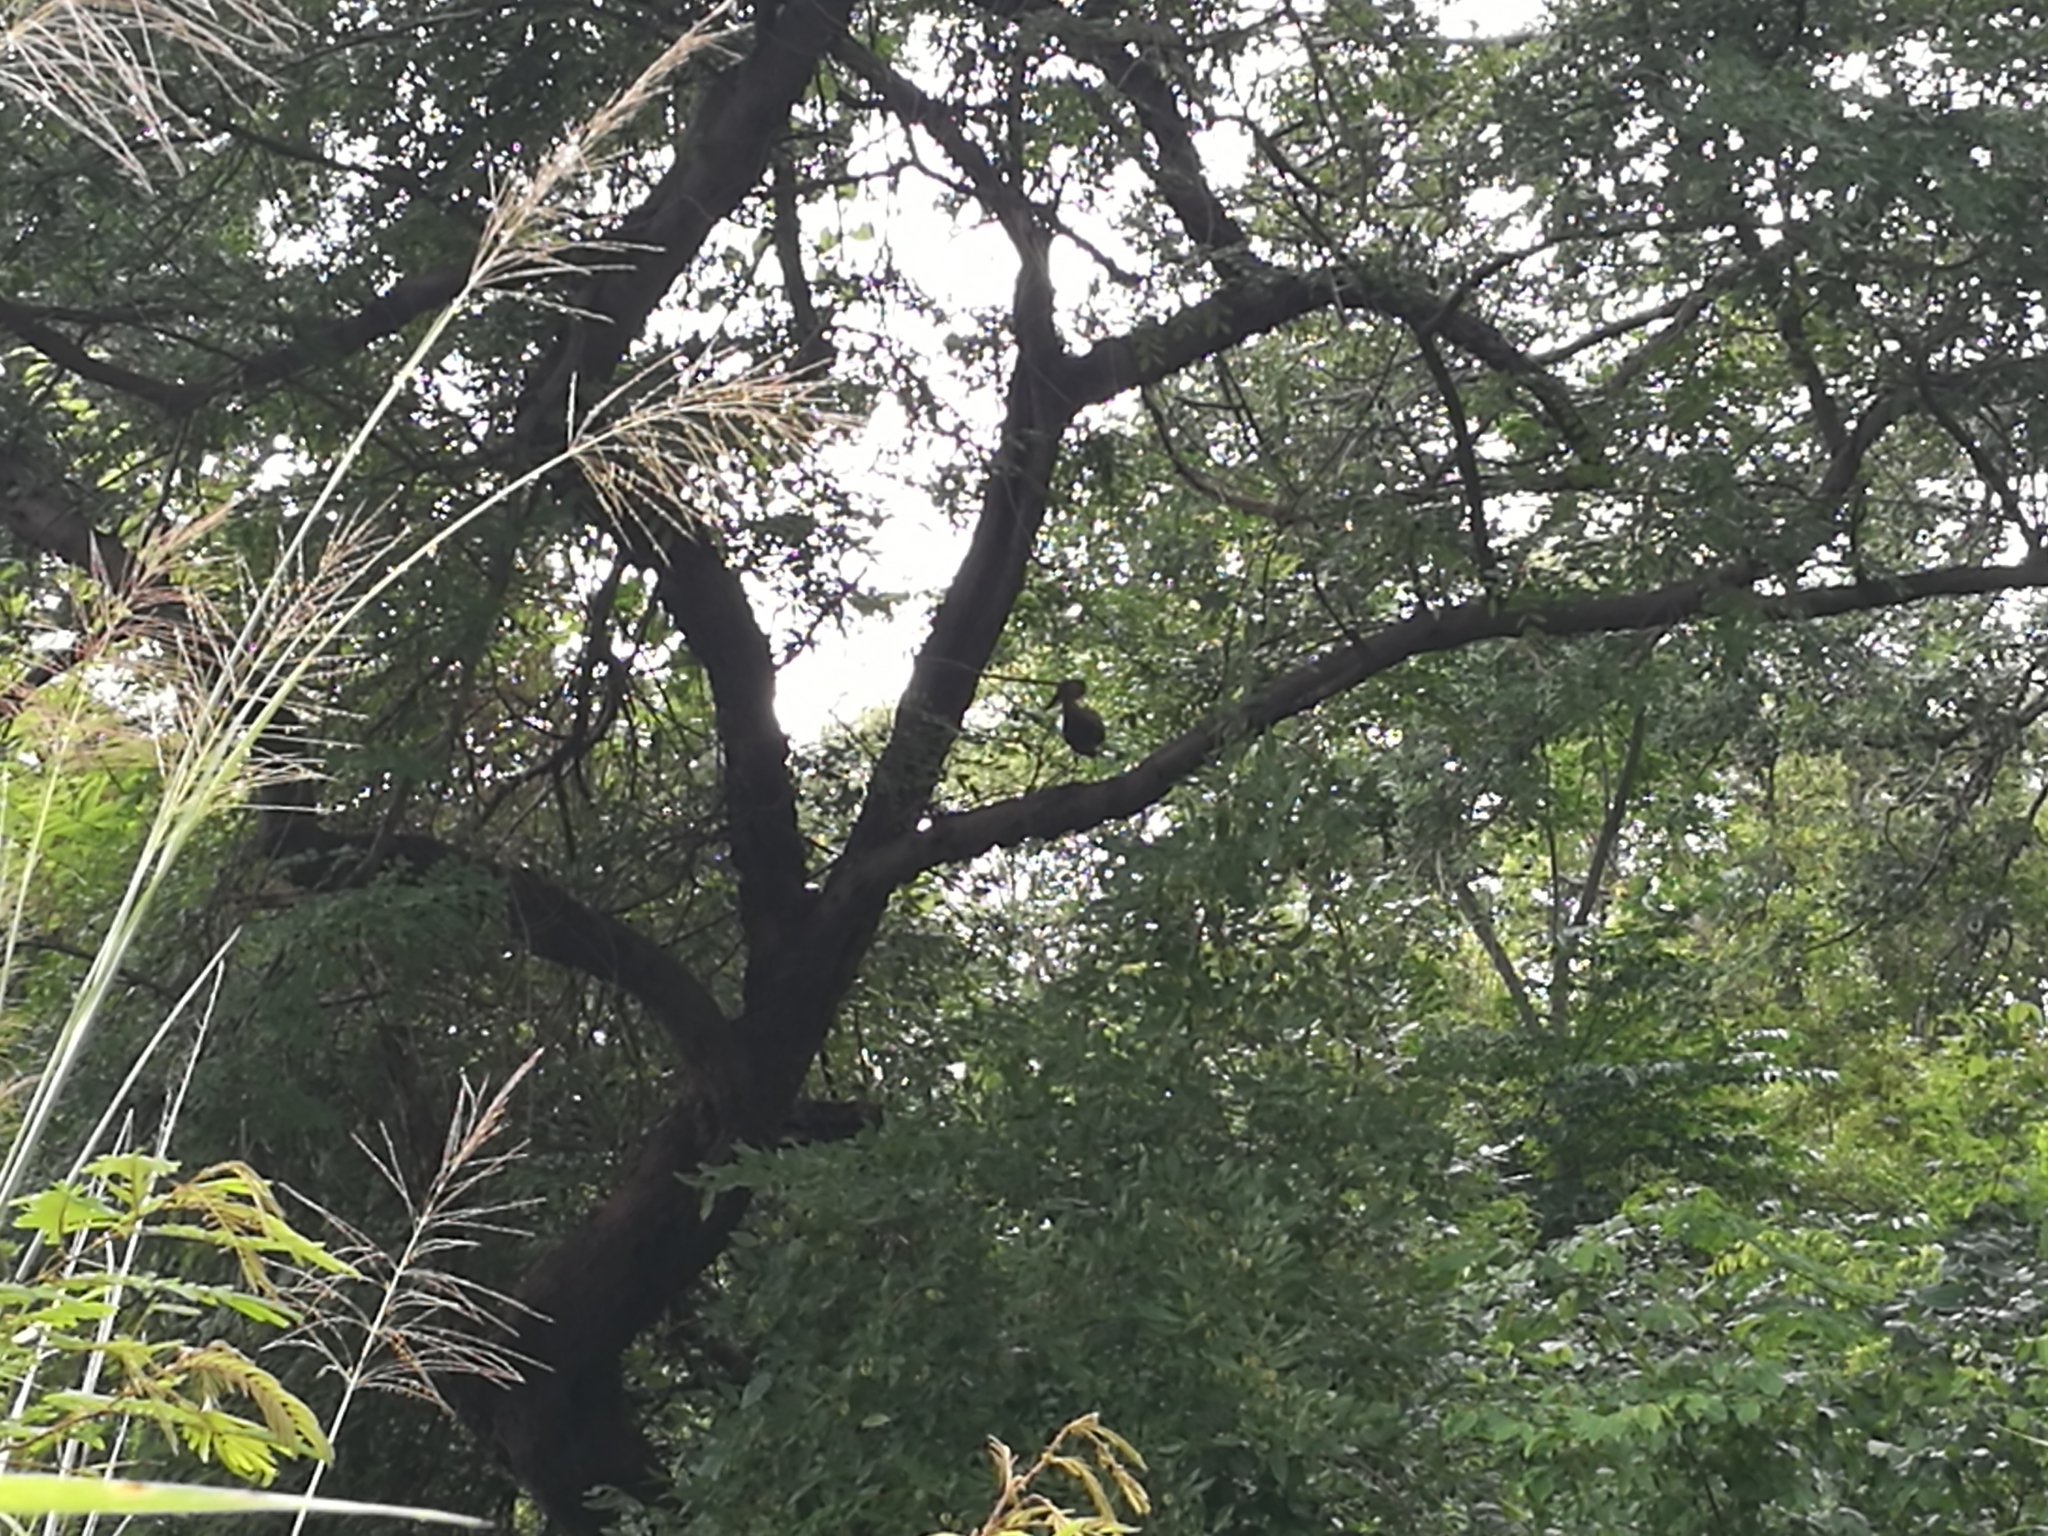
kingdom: Animalia
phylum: Chordata
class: Aves
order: Pelecaniformes
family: Scopidae
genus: Scopus
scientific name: Scopus umbretta
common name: Hamerkop
